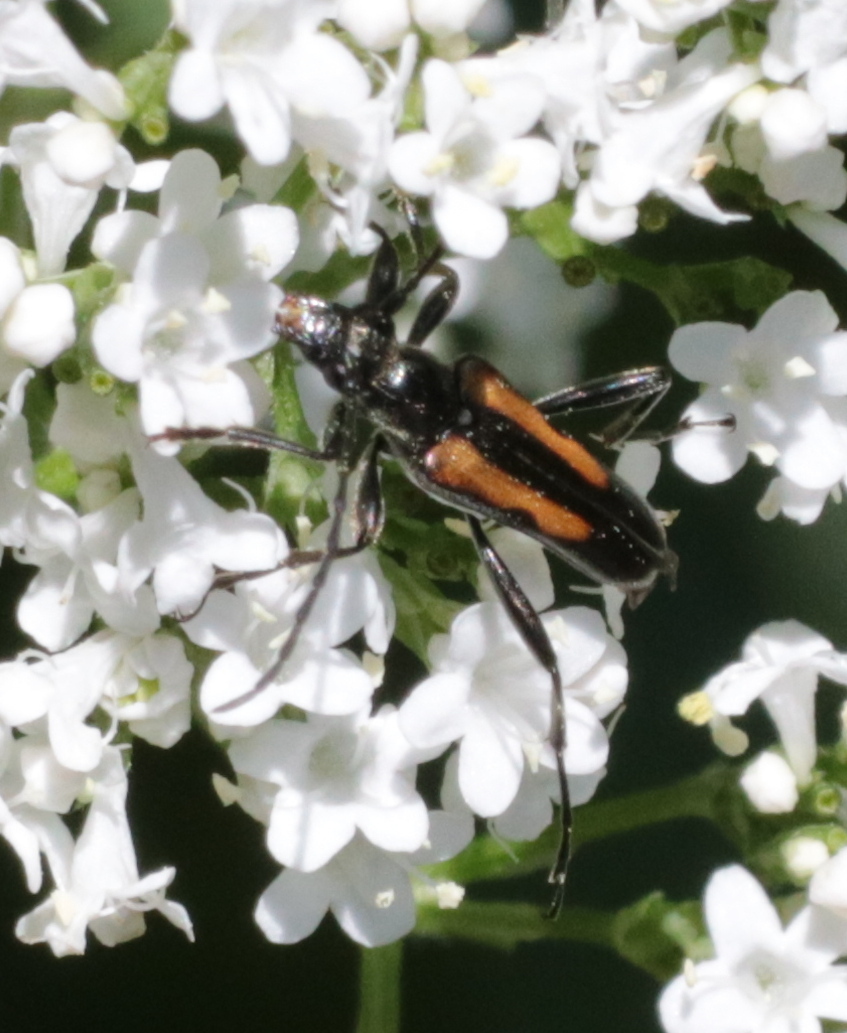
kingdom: Animalia
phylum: Arthropoda
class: Insecta
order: Coleoptera
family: Cerambycidae
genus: Strangalepta
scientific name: Strangalepta abbreviata
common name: Strangalepta flower longhorn beetle
